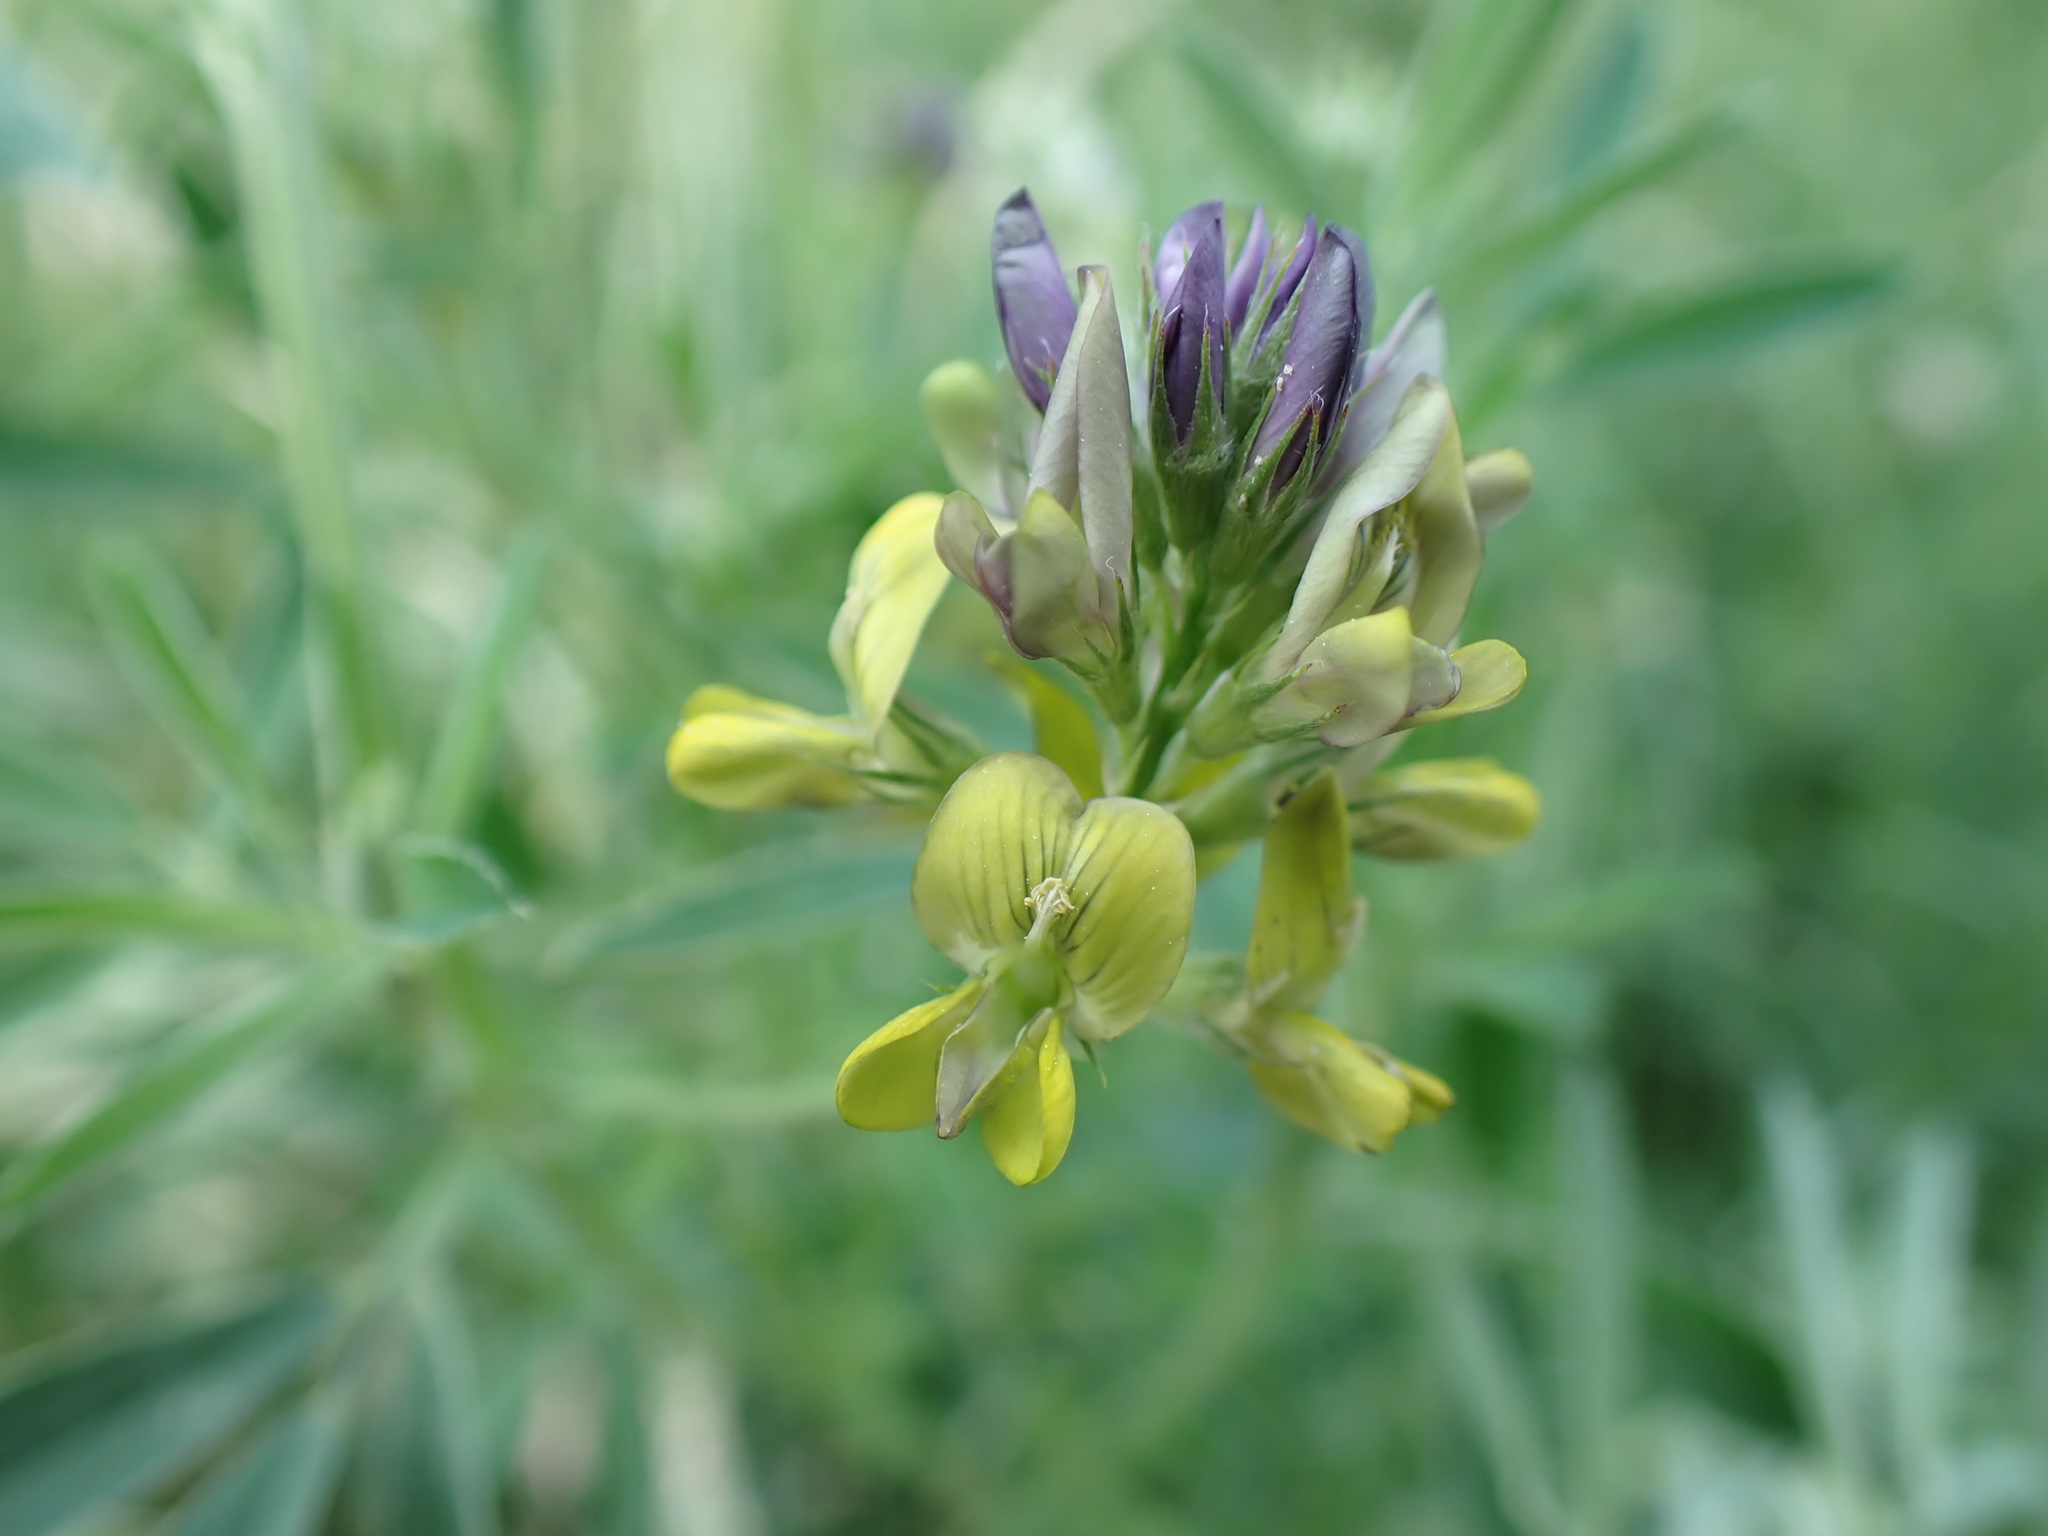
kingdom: Plantae
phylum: Tracheophyta
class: Magnoliopsida
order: Fabales
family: Fabaceae
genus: Medicago
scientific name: Medicago varia
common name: Sand lucerne
